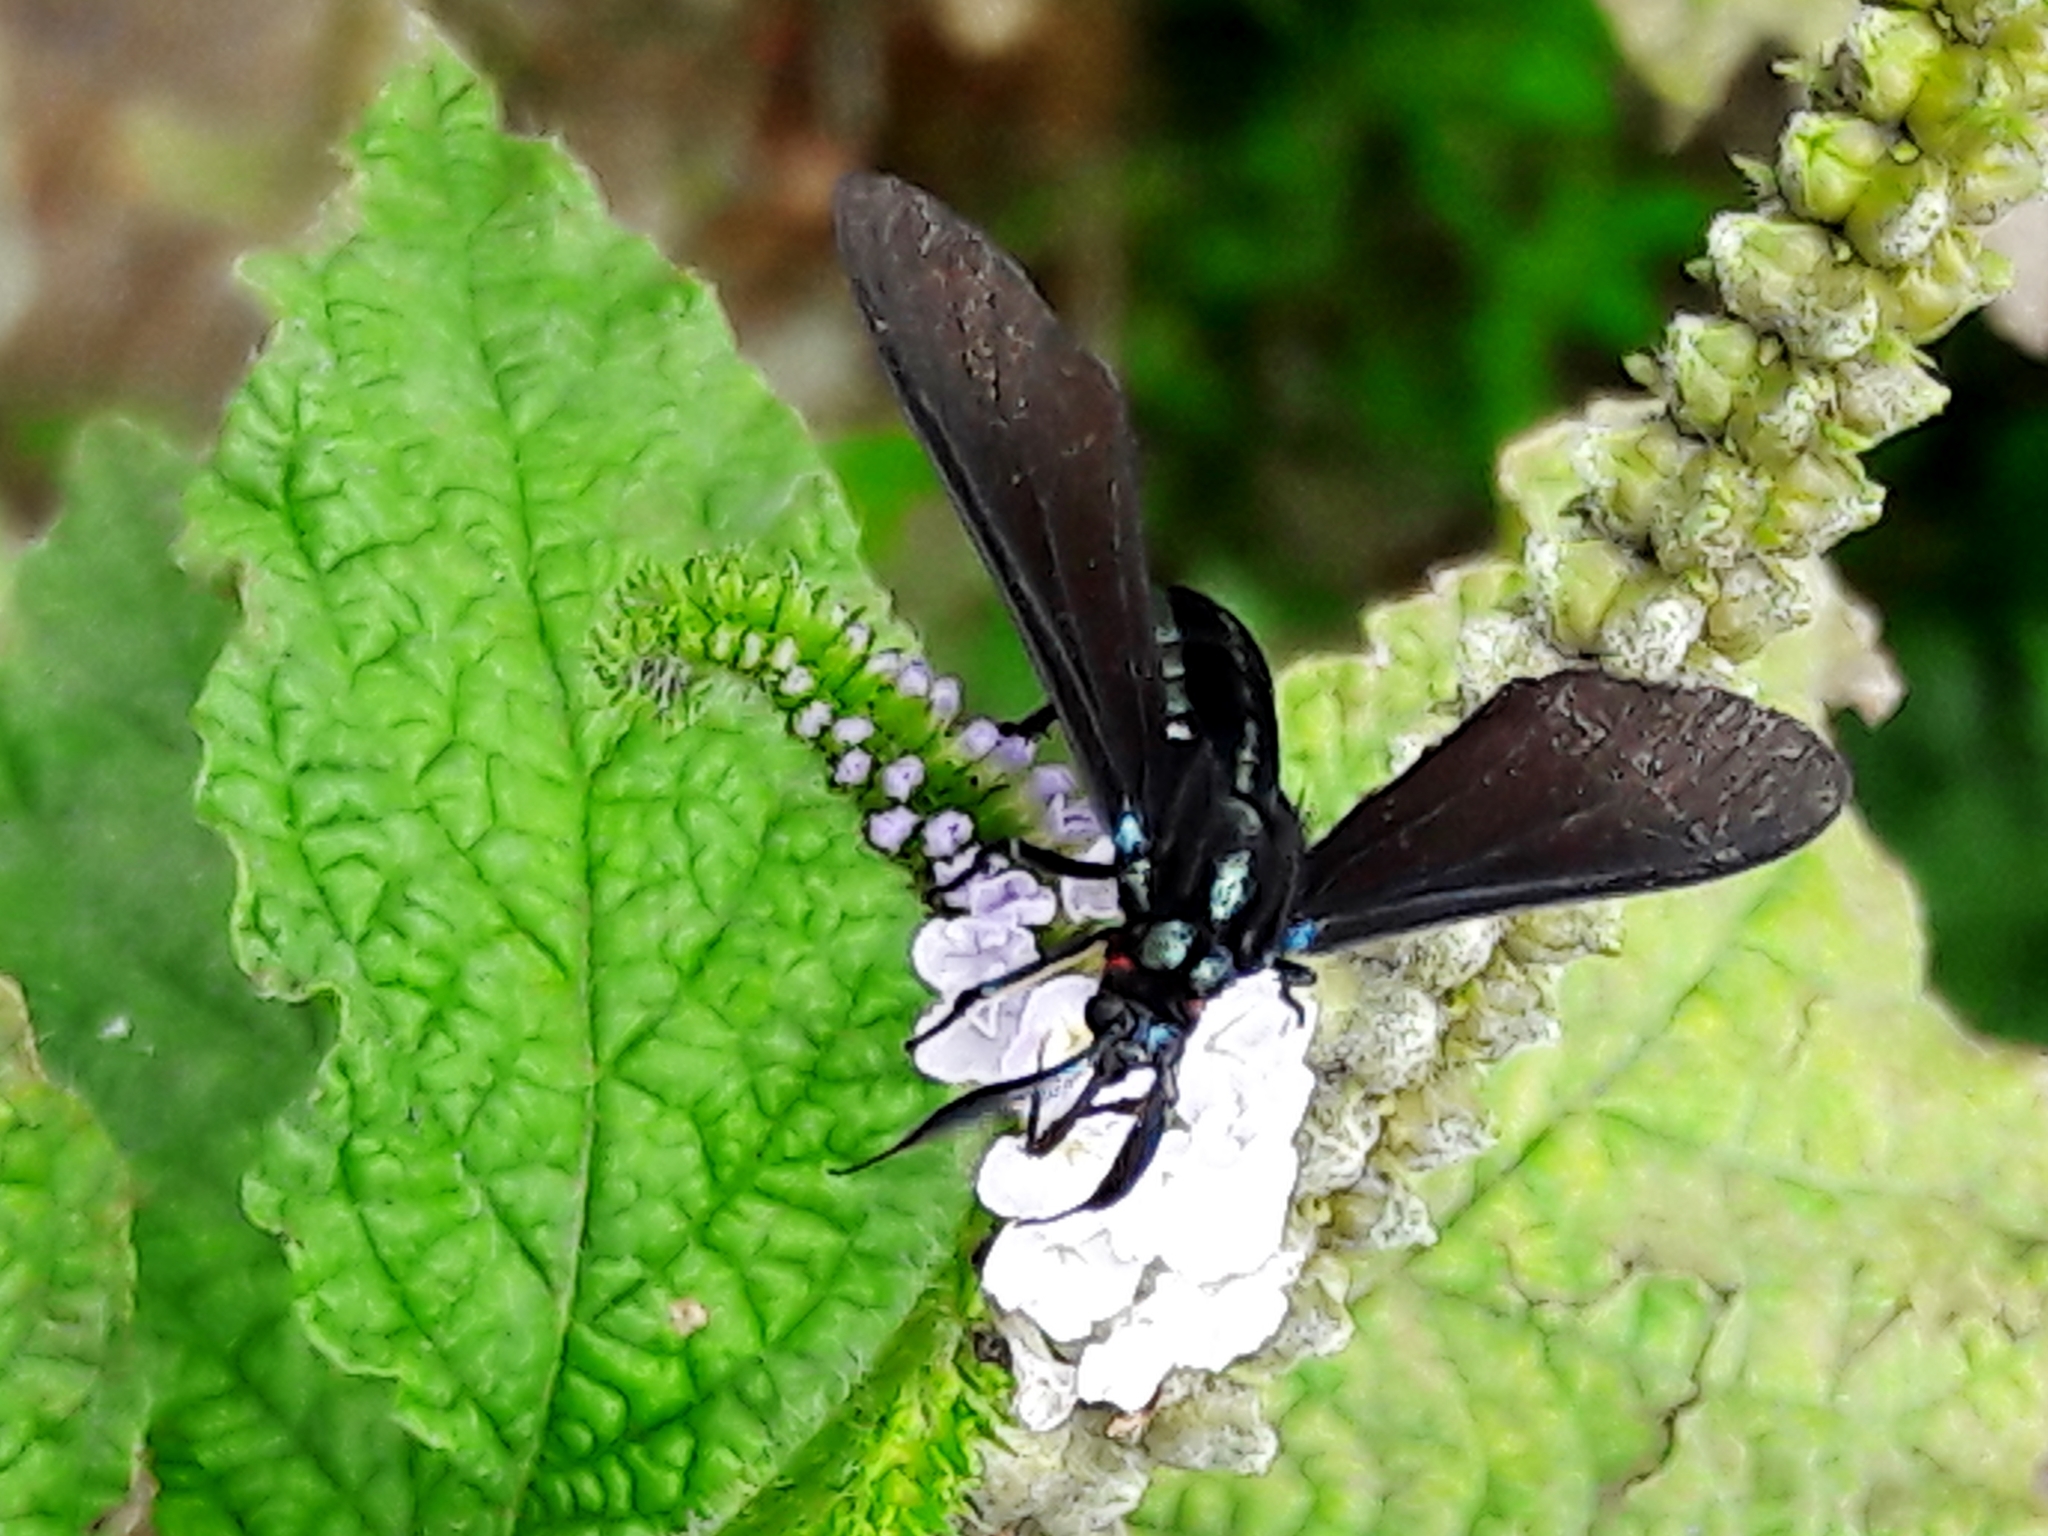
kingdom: Animalia
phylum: Arthropoda
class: Insecta
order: Lepidoptera
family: Erebidae
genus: Antichloris
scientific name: Antichloris eriphia
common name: Banana stowaway
